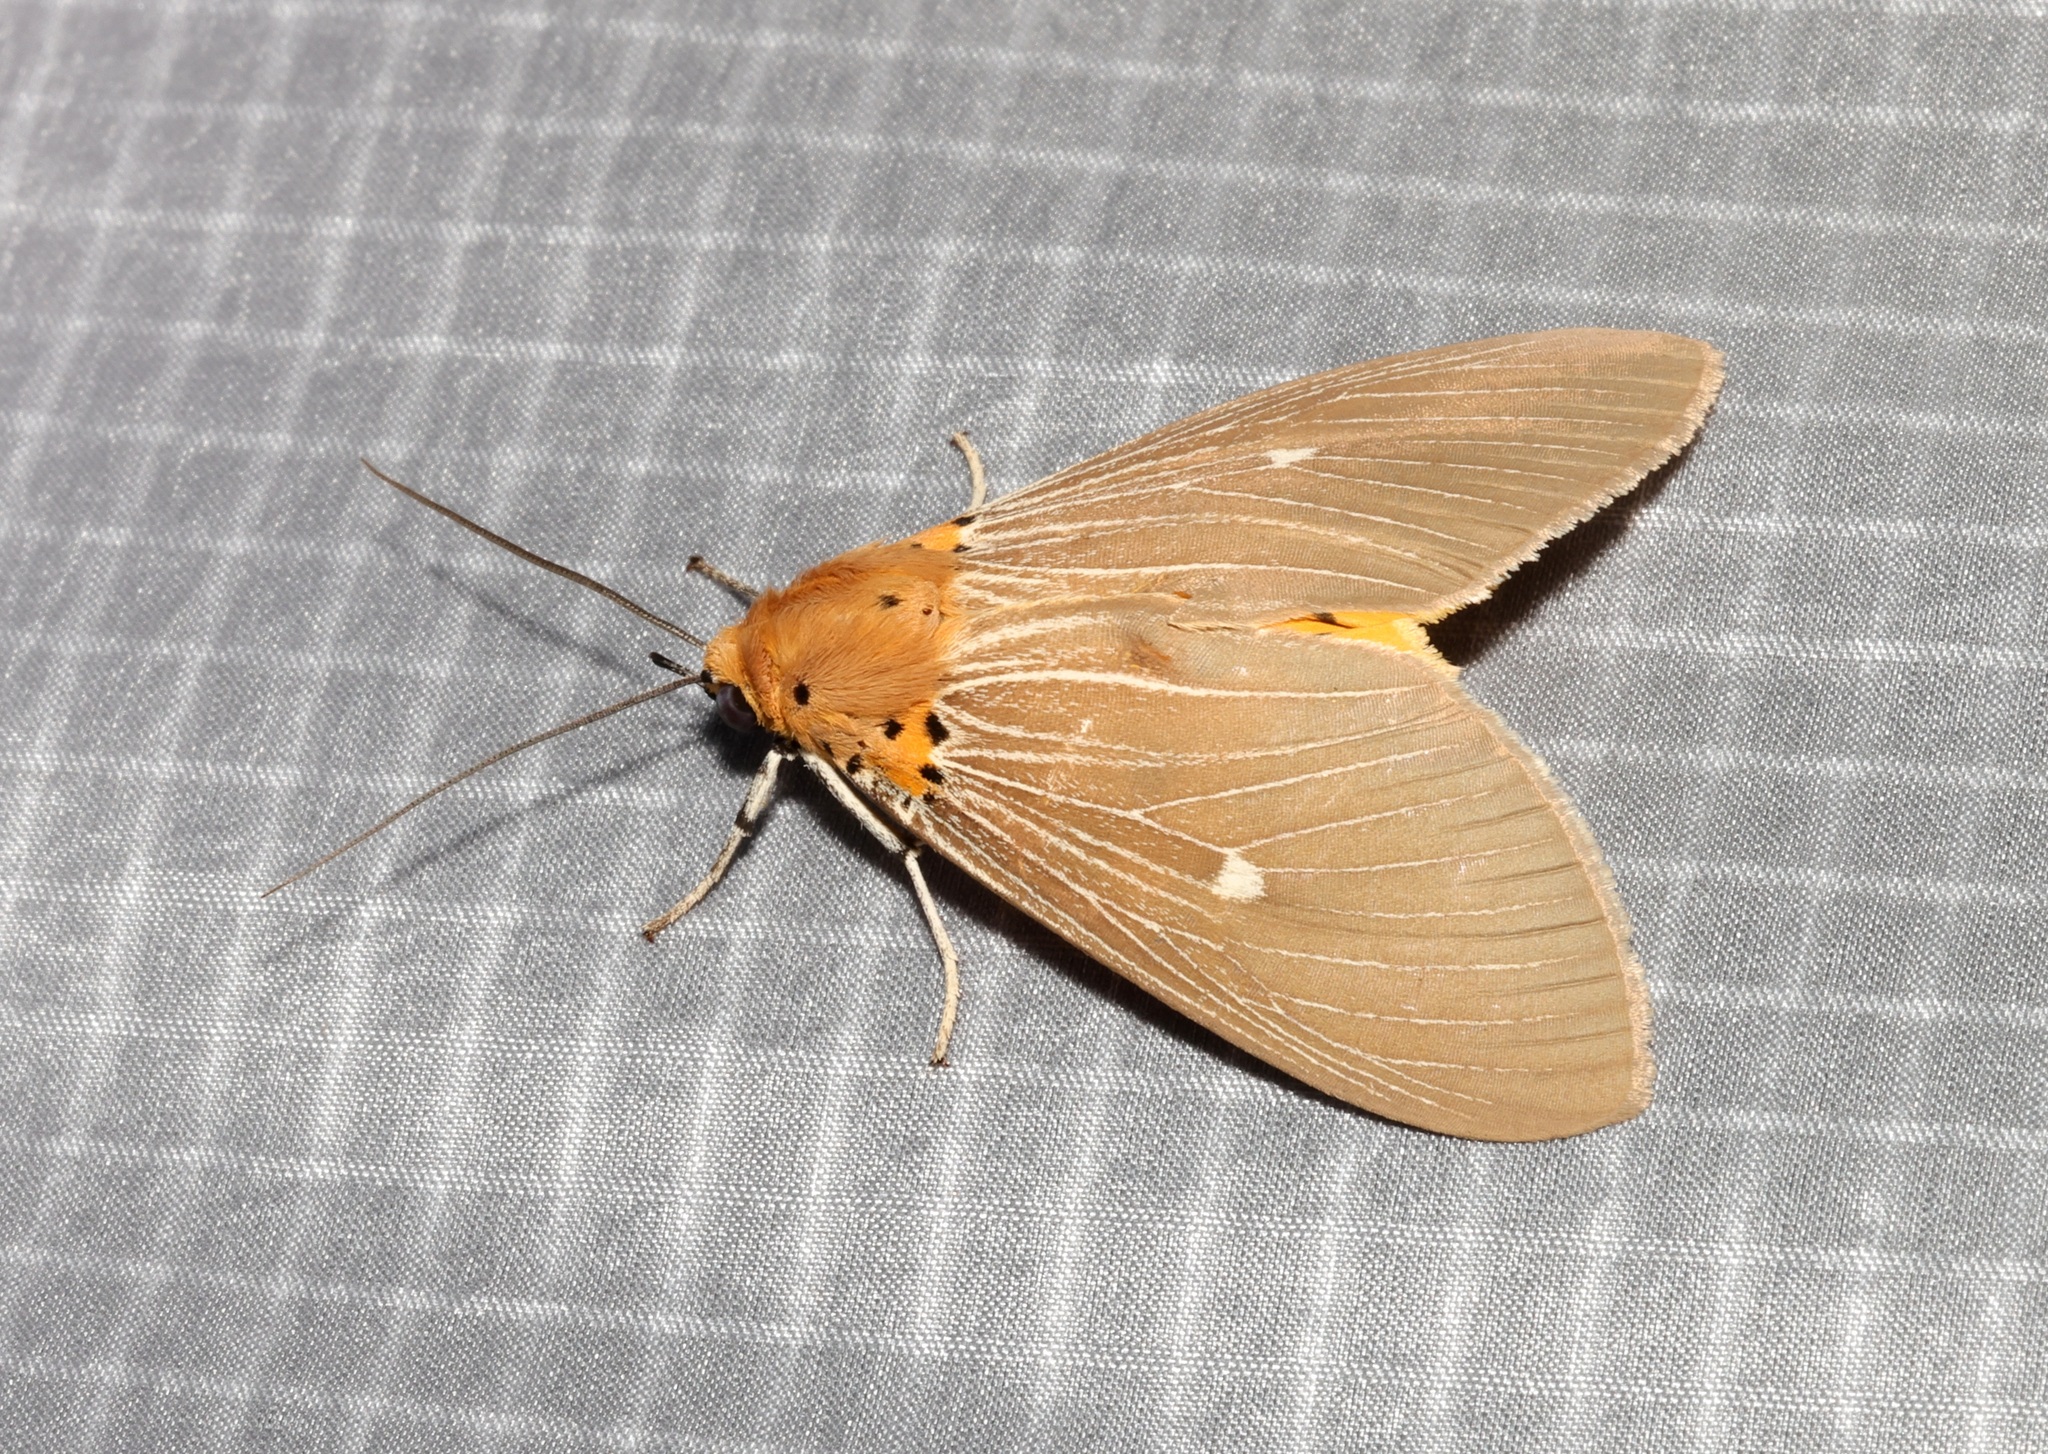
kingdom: Animalia
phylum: Arthropoda
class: Insecta
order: Lepidoptera
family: Erebidae
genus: Asota
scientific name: Asota caricae
